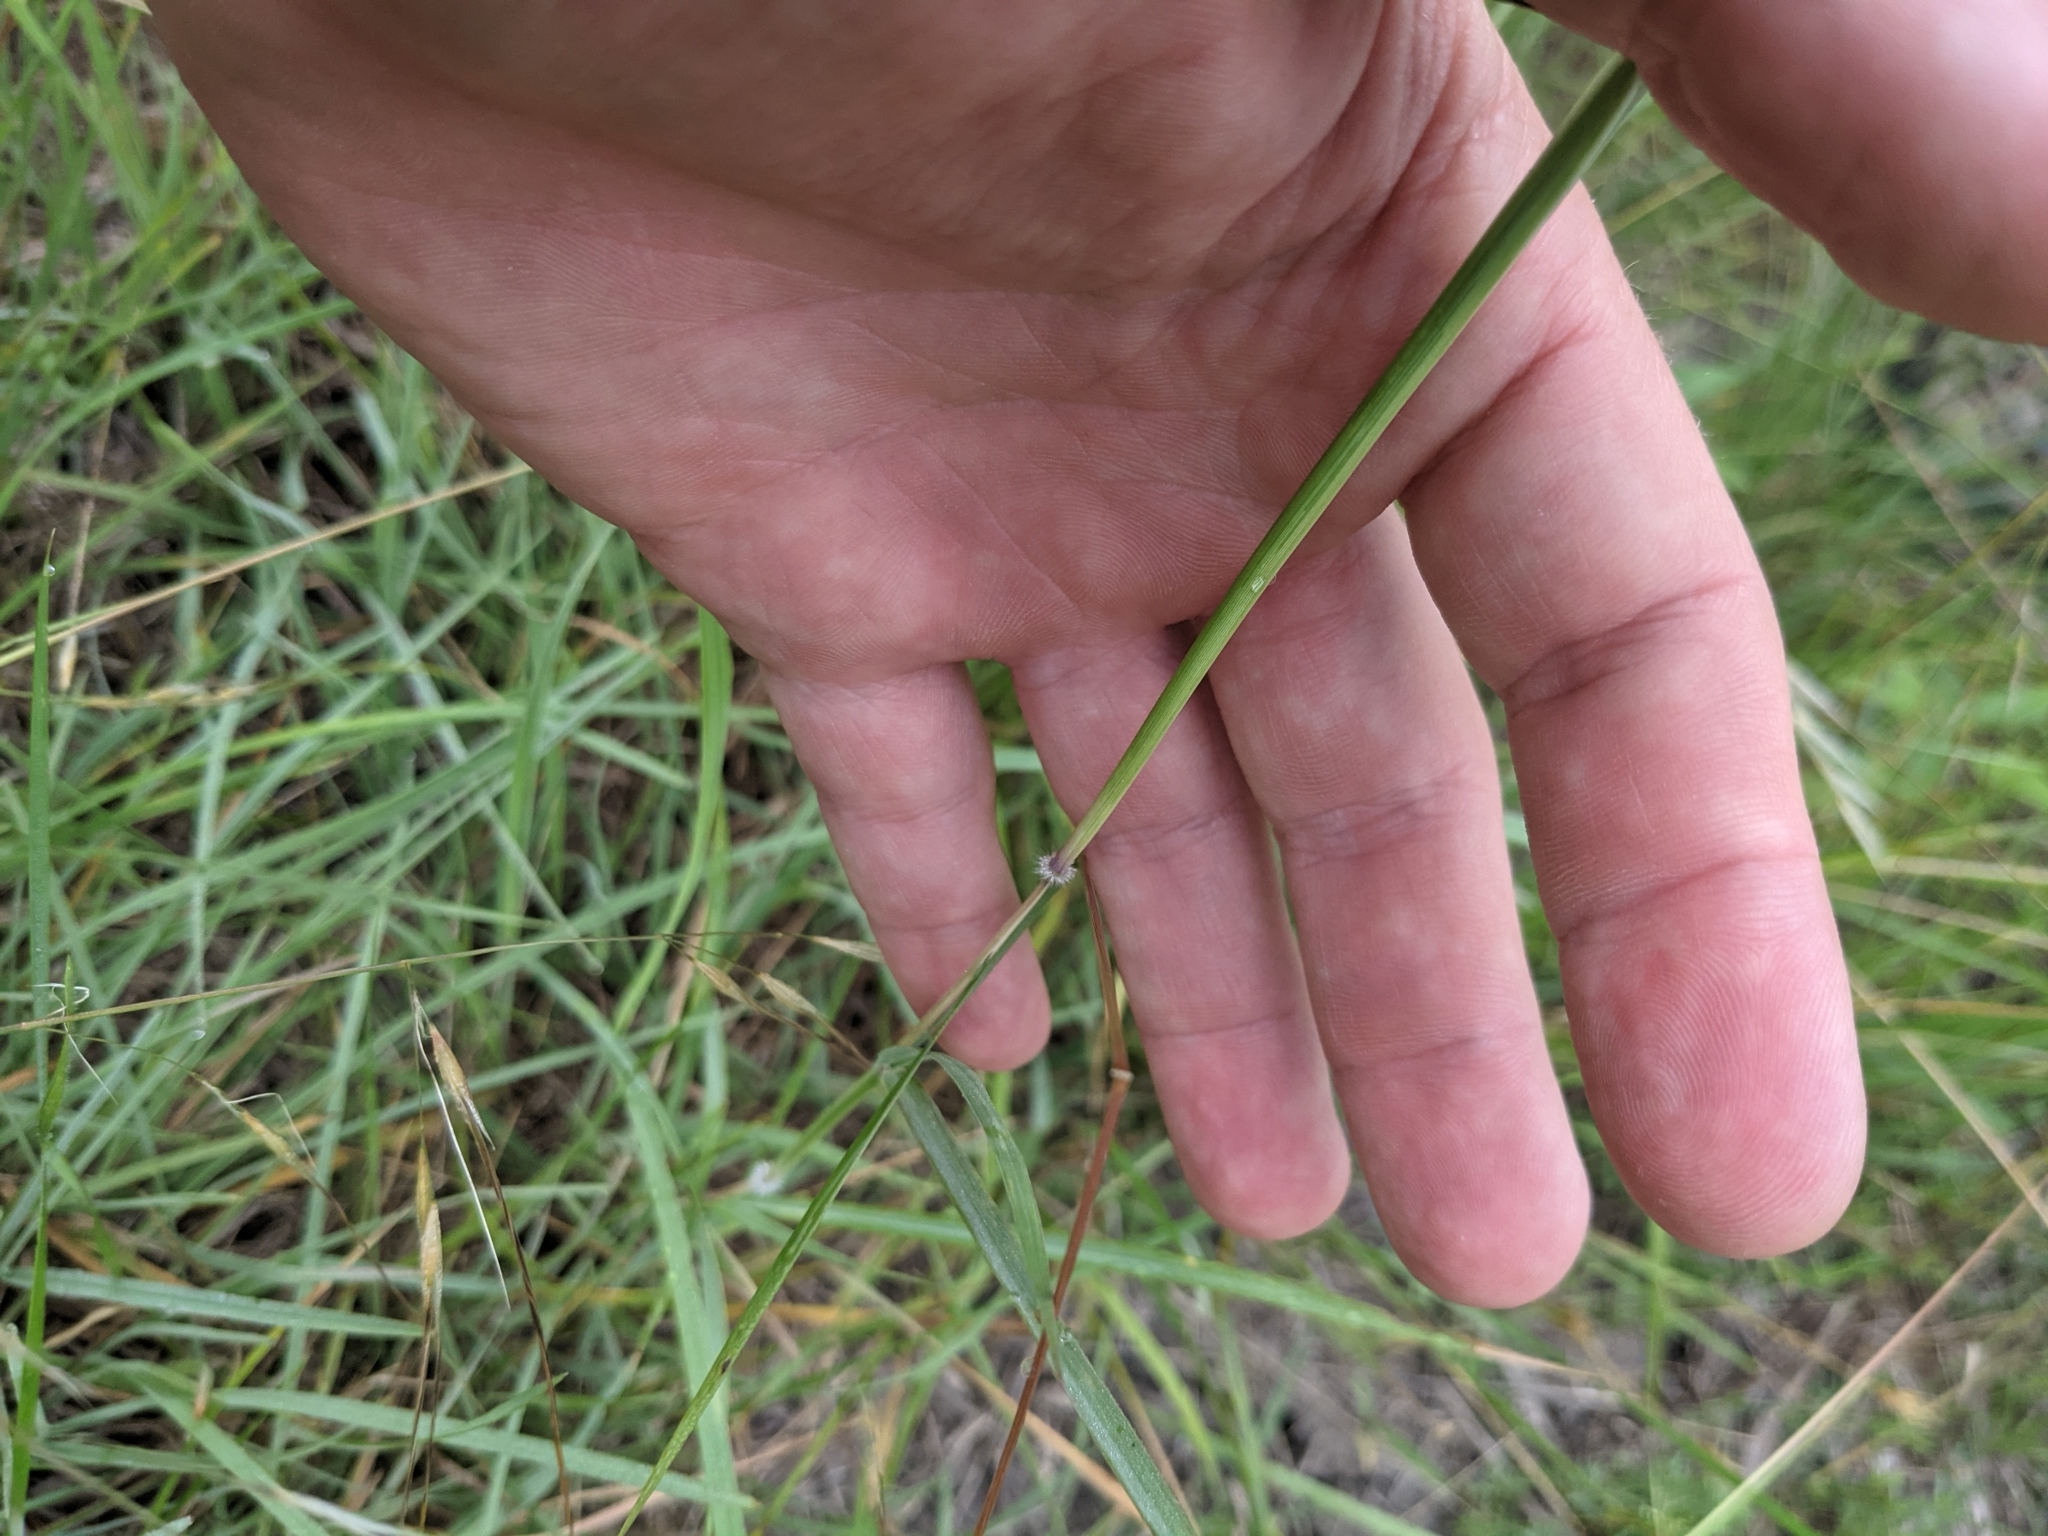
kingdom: Plantae
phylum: Tracheophyta
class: Liliopsida
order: Poales
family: Poaceae
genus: Dichanthium
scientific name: Dichanthium sericeum
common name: Silky bluestem
